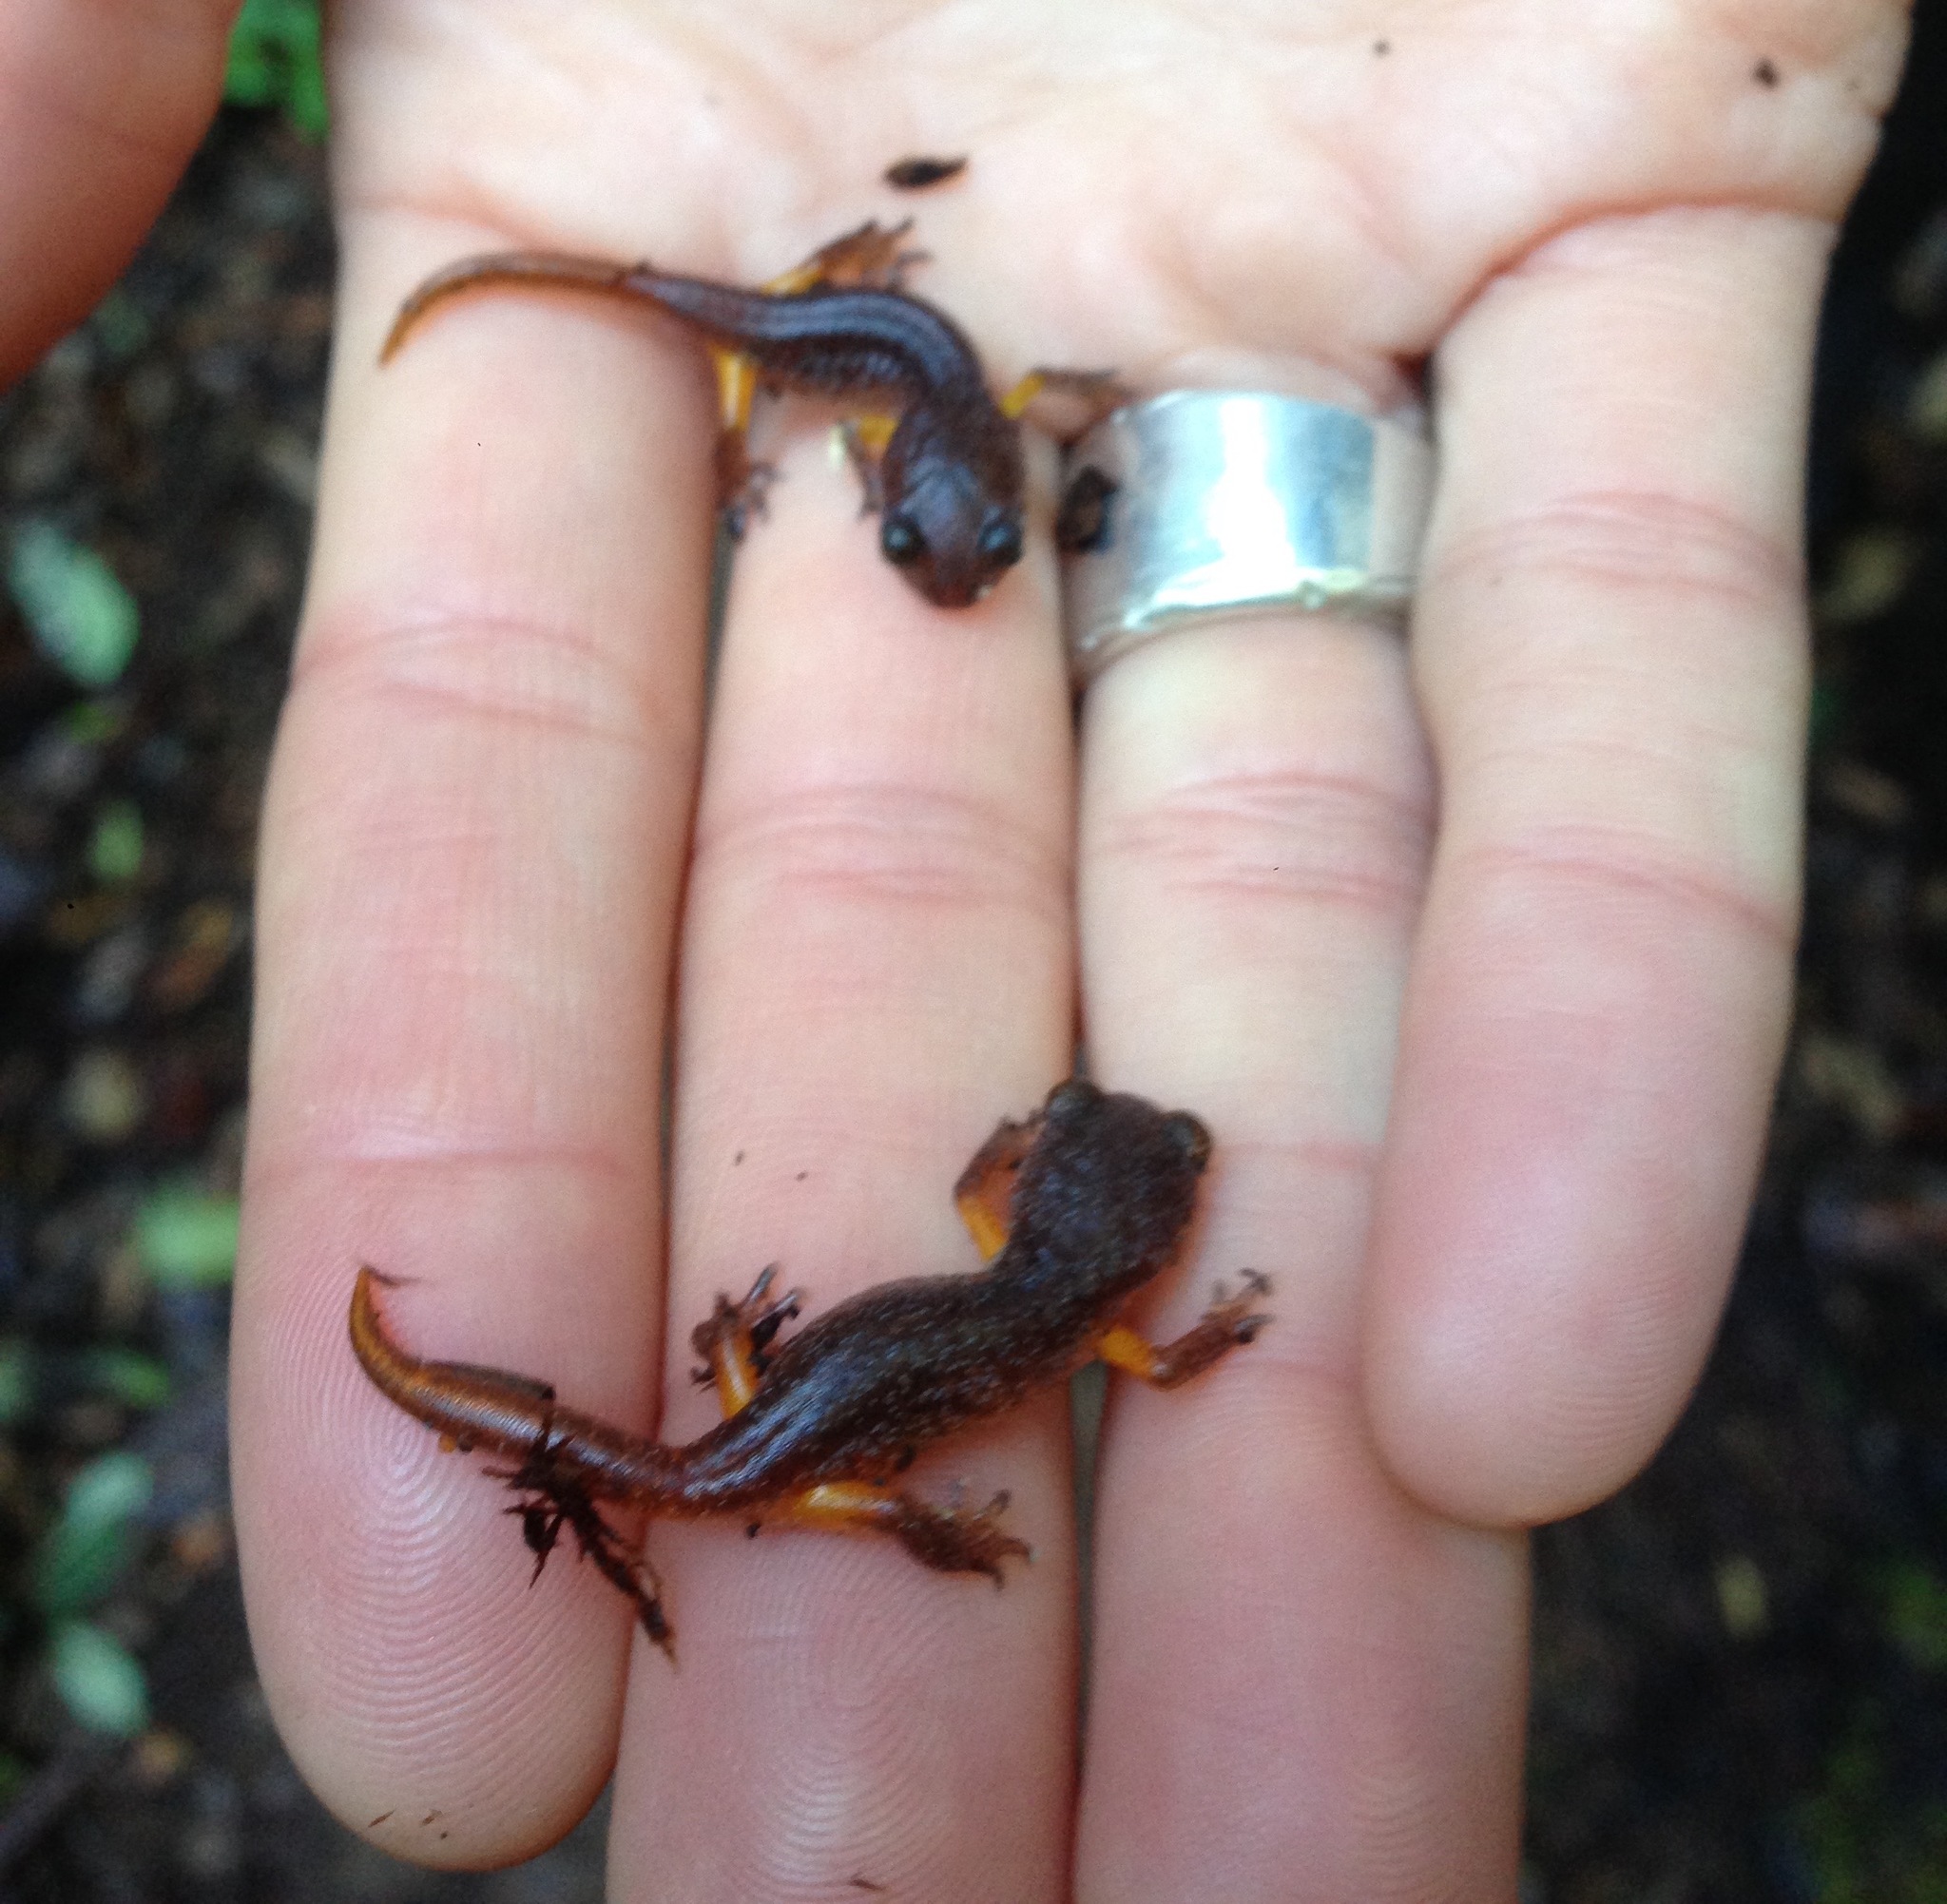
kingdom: Animalia
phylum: Chordata
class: Amphibia
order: Caudata
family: Plethodontidae
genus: Ensatina
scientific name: Ensatina eschscholtzii
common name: Ensatina
